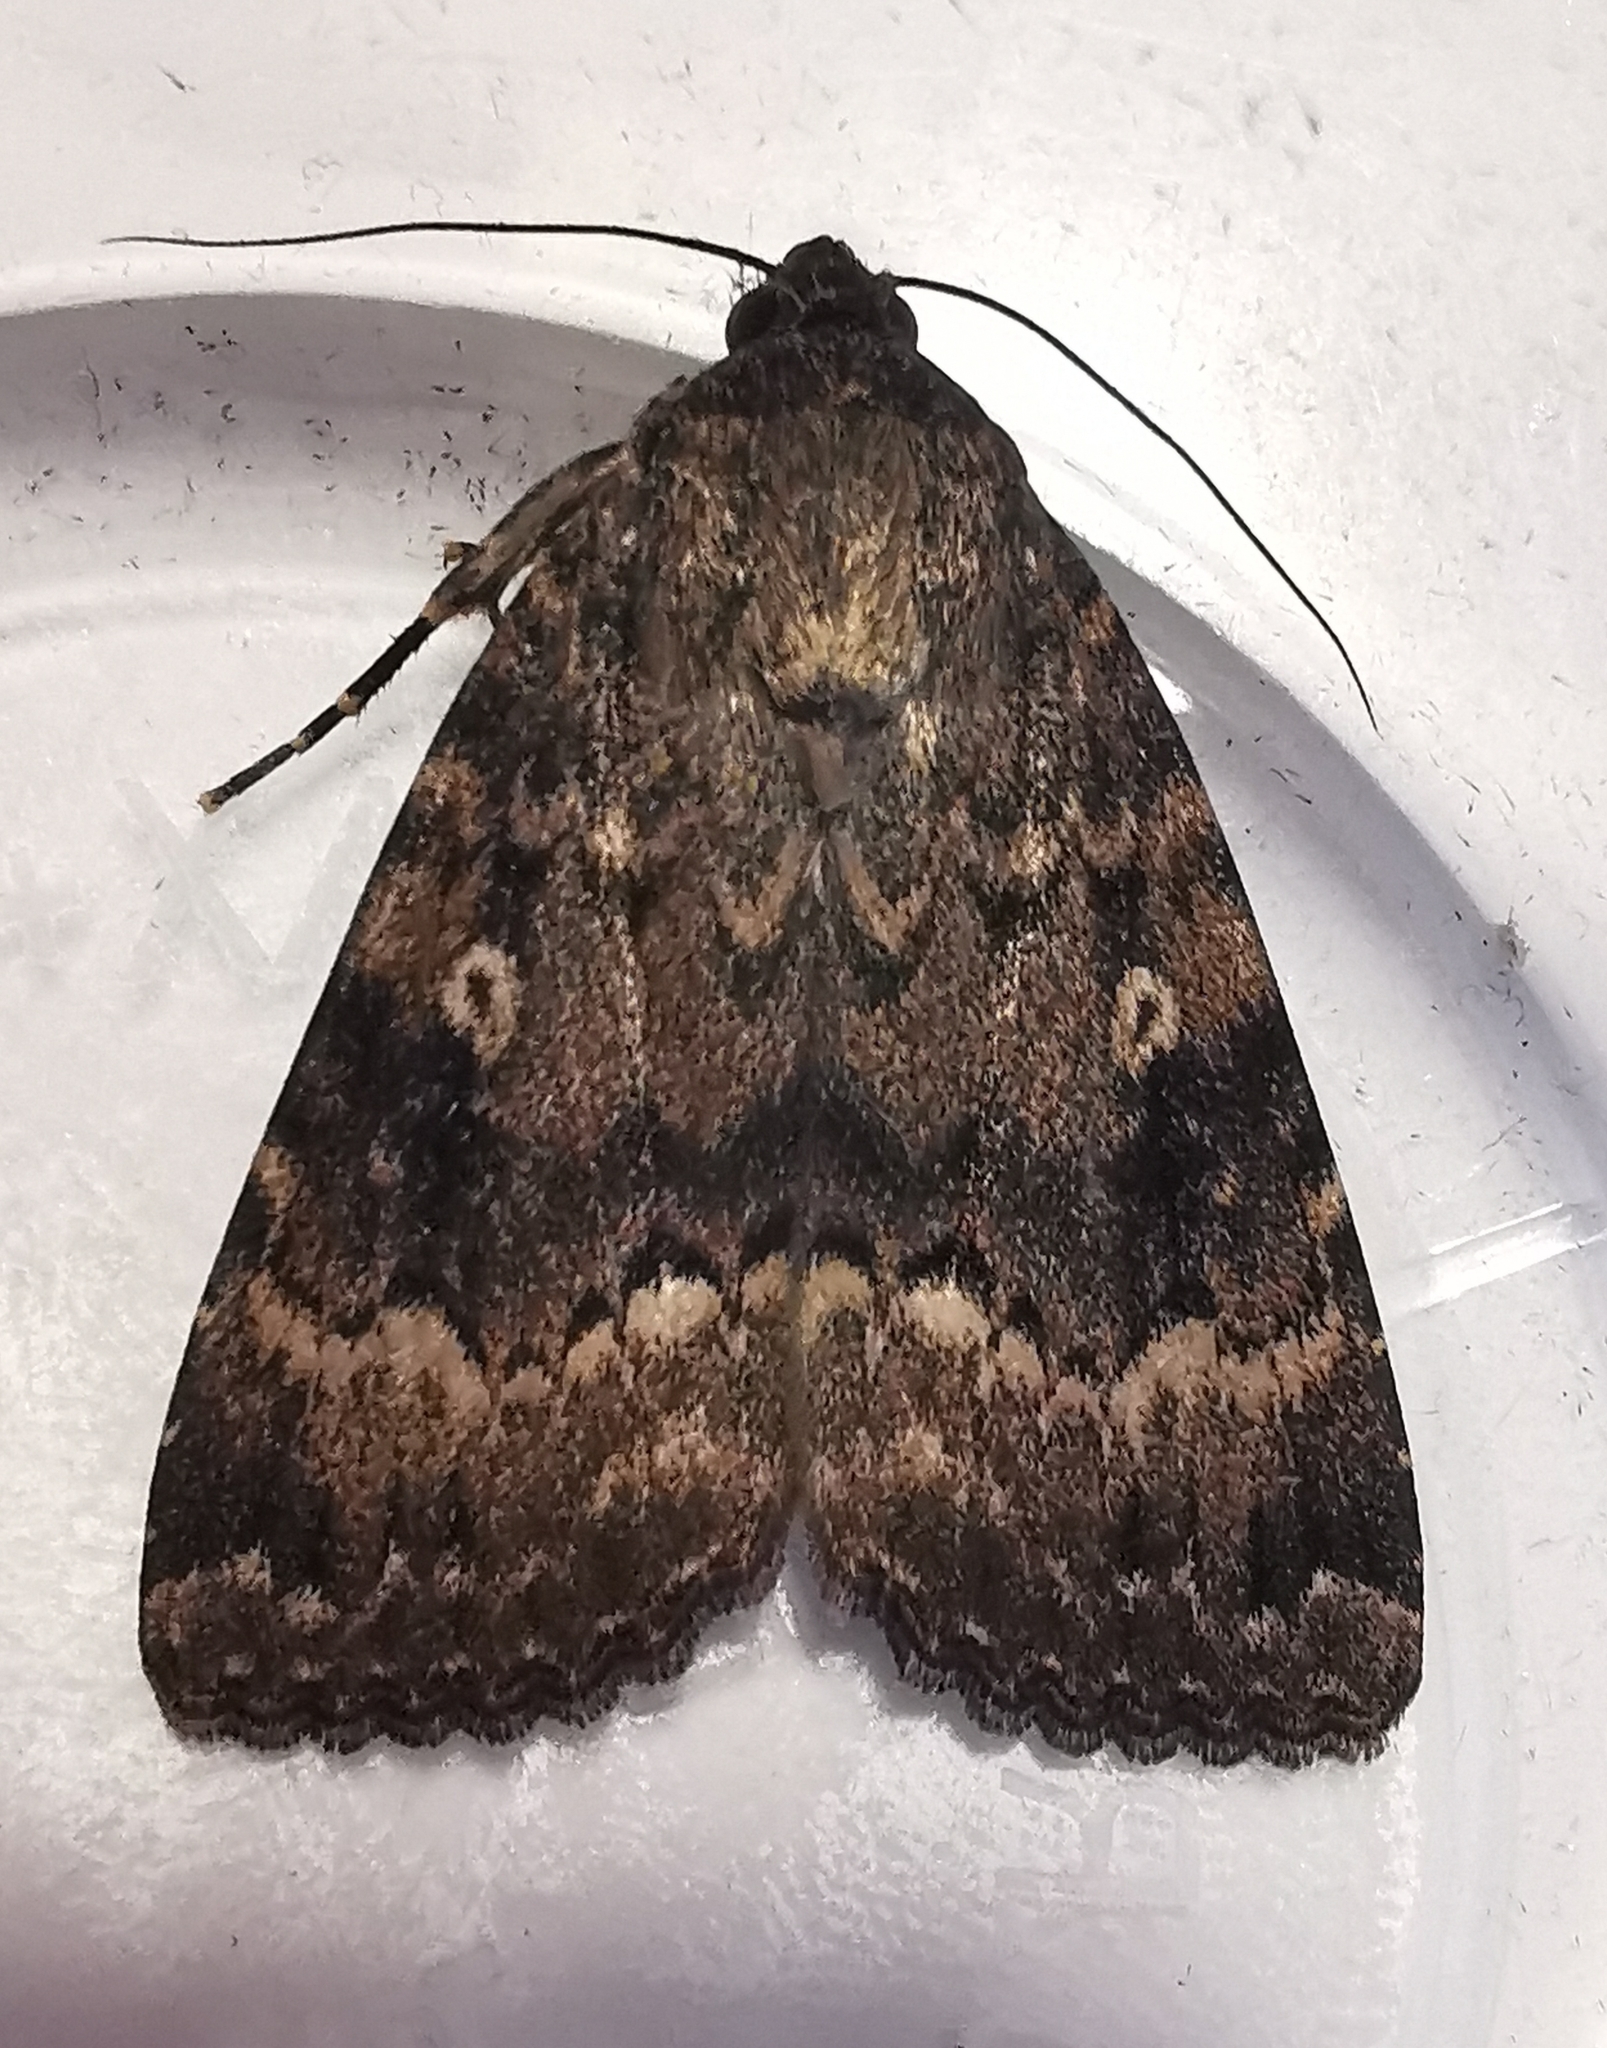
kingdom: Animalia
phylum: Arthropoda
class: Insecta
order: Lepidoptera
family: Noctuidae
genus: Amphipyra
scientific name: Amphipyra berbera
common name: Svensson's copper underwing
